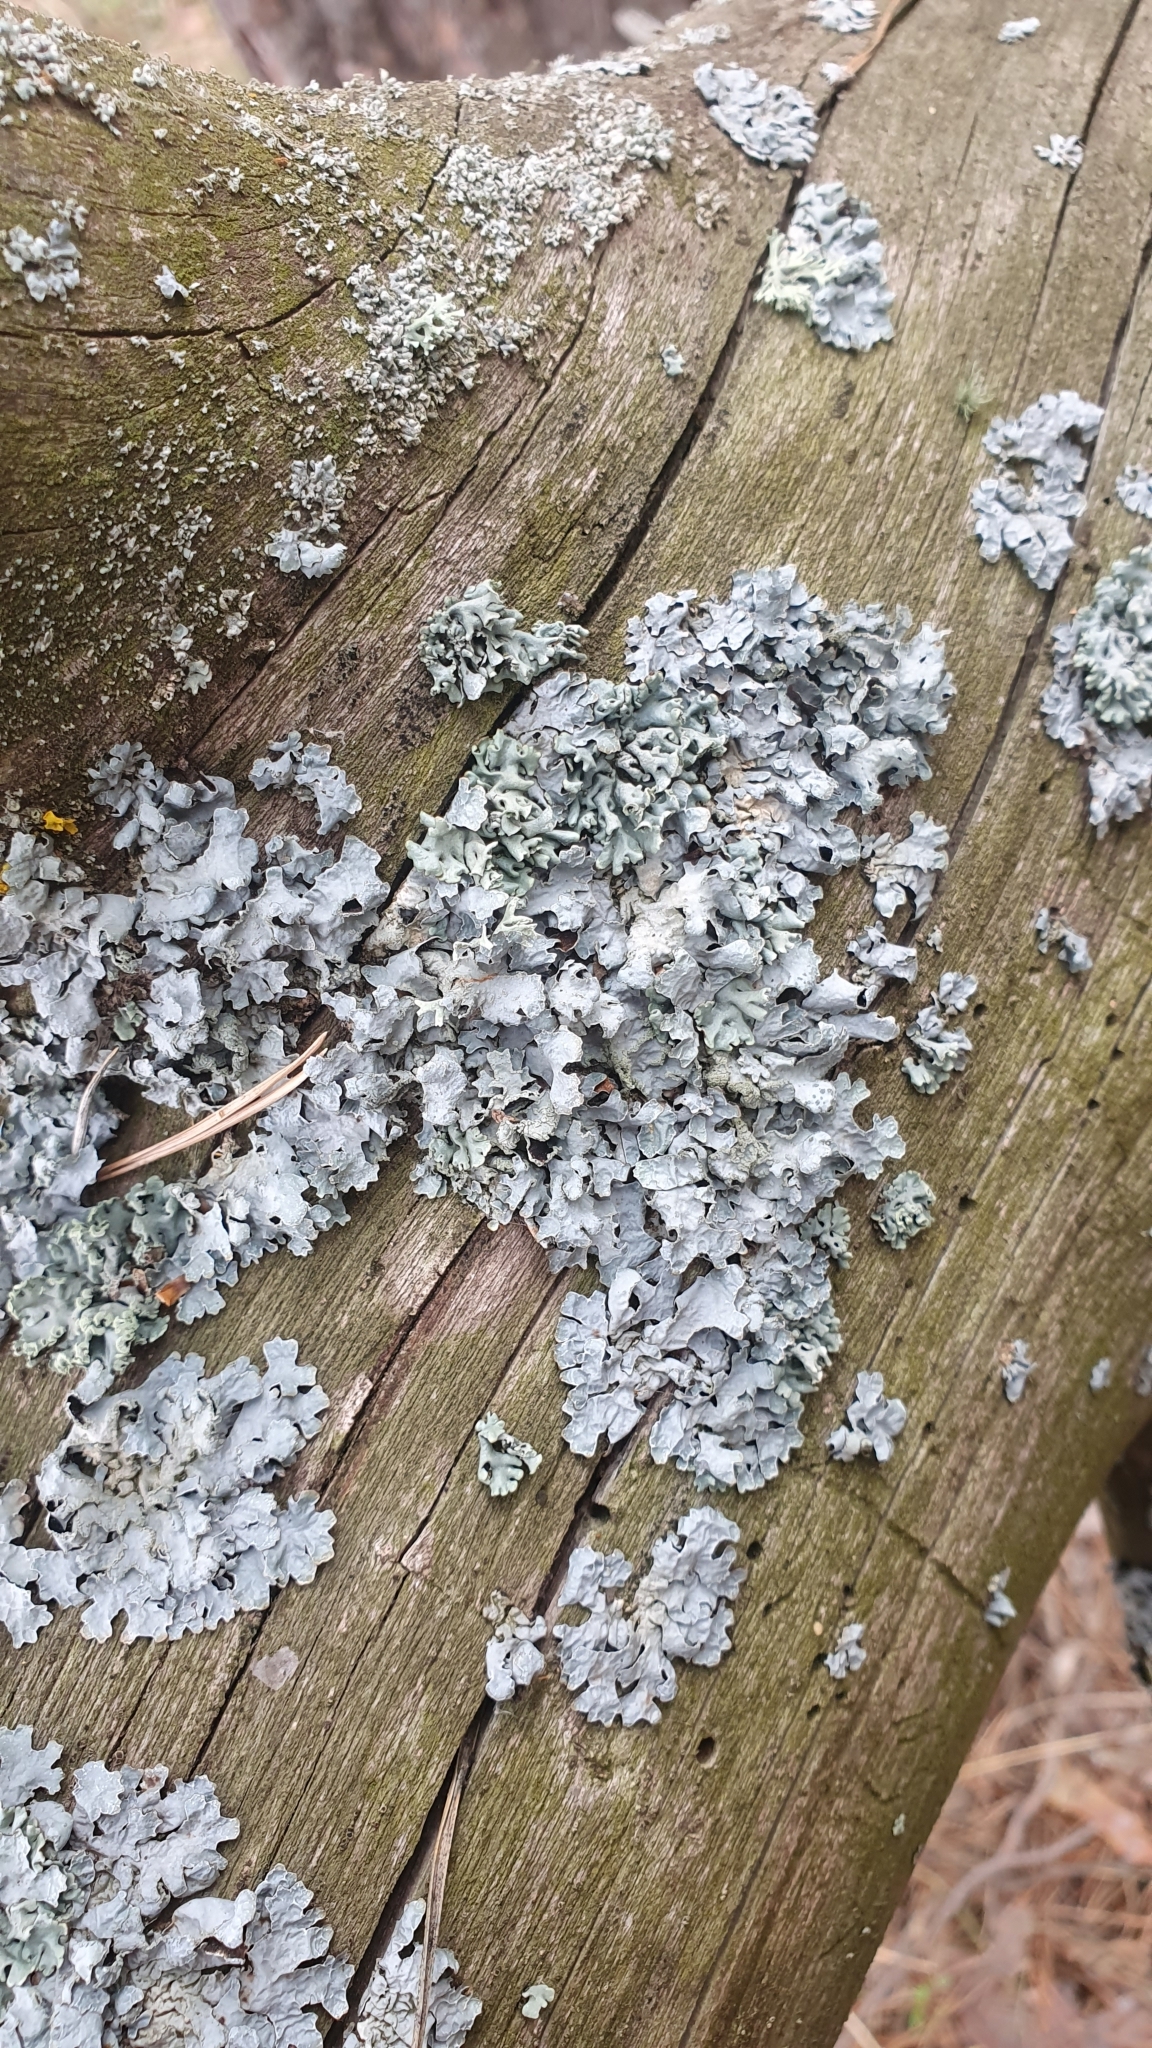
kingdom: Fungi
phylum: Ascomycota
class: Lecanoromycetes
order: Lecanorales
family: Parmeliaceae
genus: Parmelia
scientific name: Parmelia sulcata
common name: Netted shield lichen
